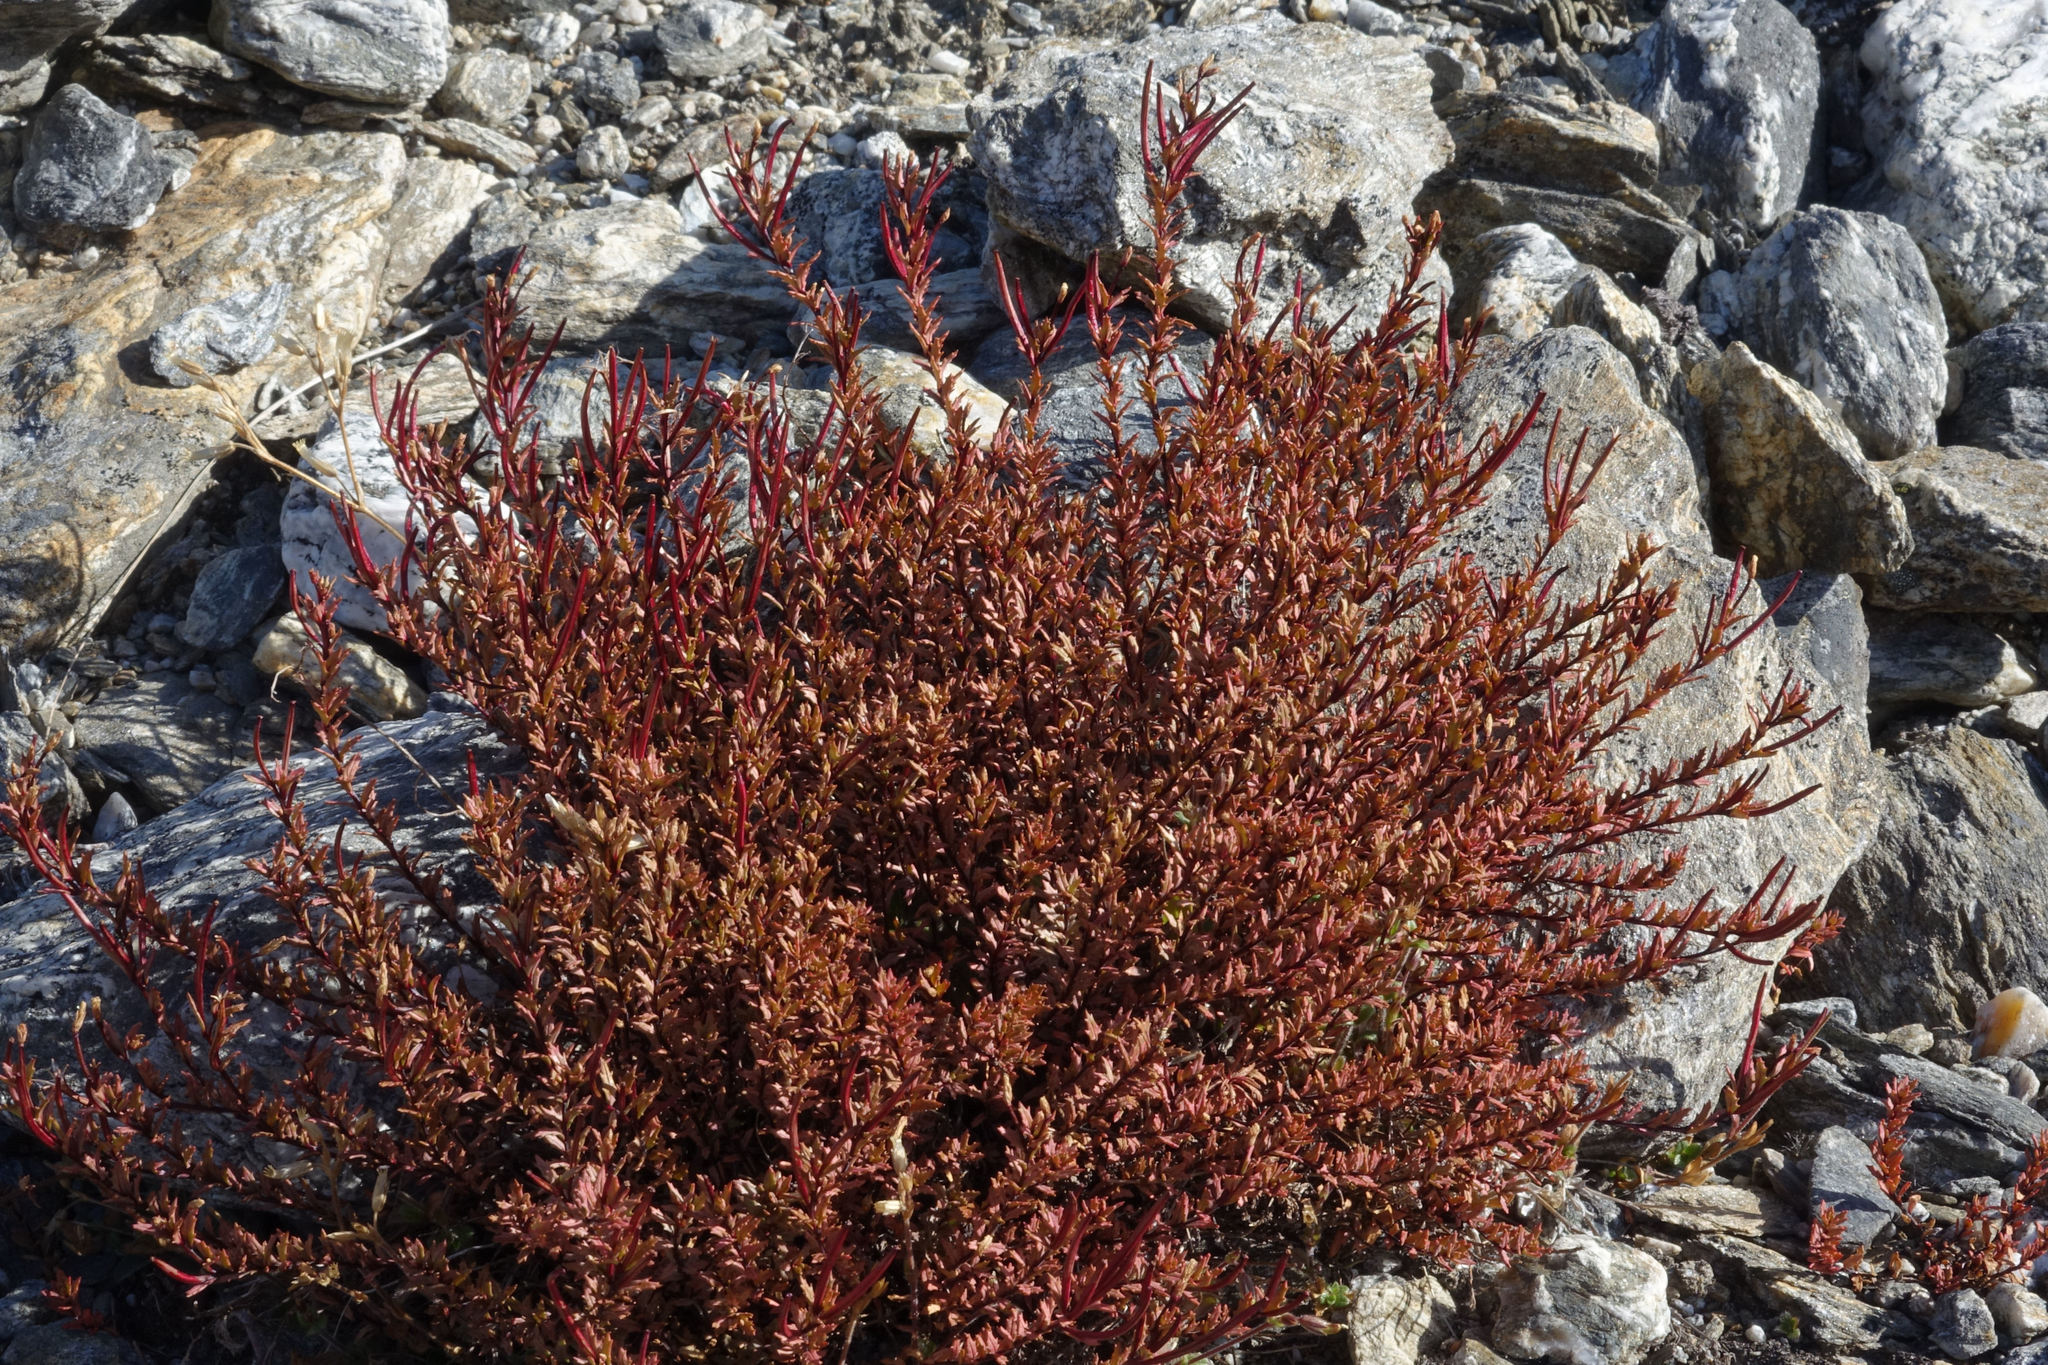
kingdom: Plantae
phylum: Tracheophyta
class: Magnoliopsida
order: Myrtales
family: Onagraceae
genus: Epilobium
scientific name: Epilobium melanocaulon
